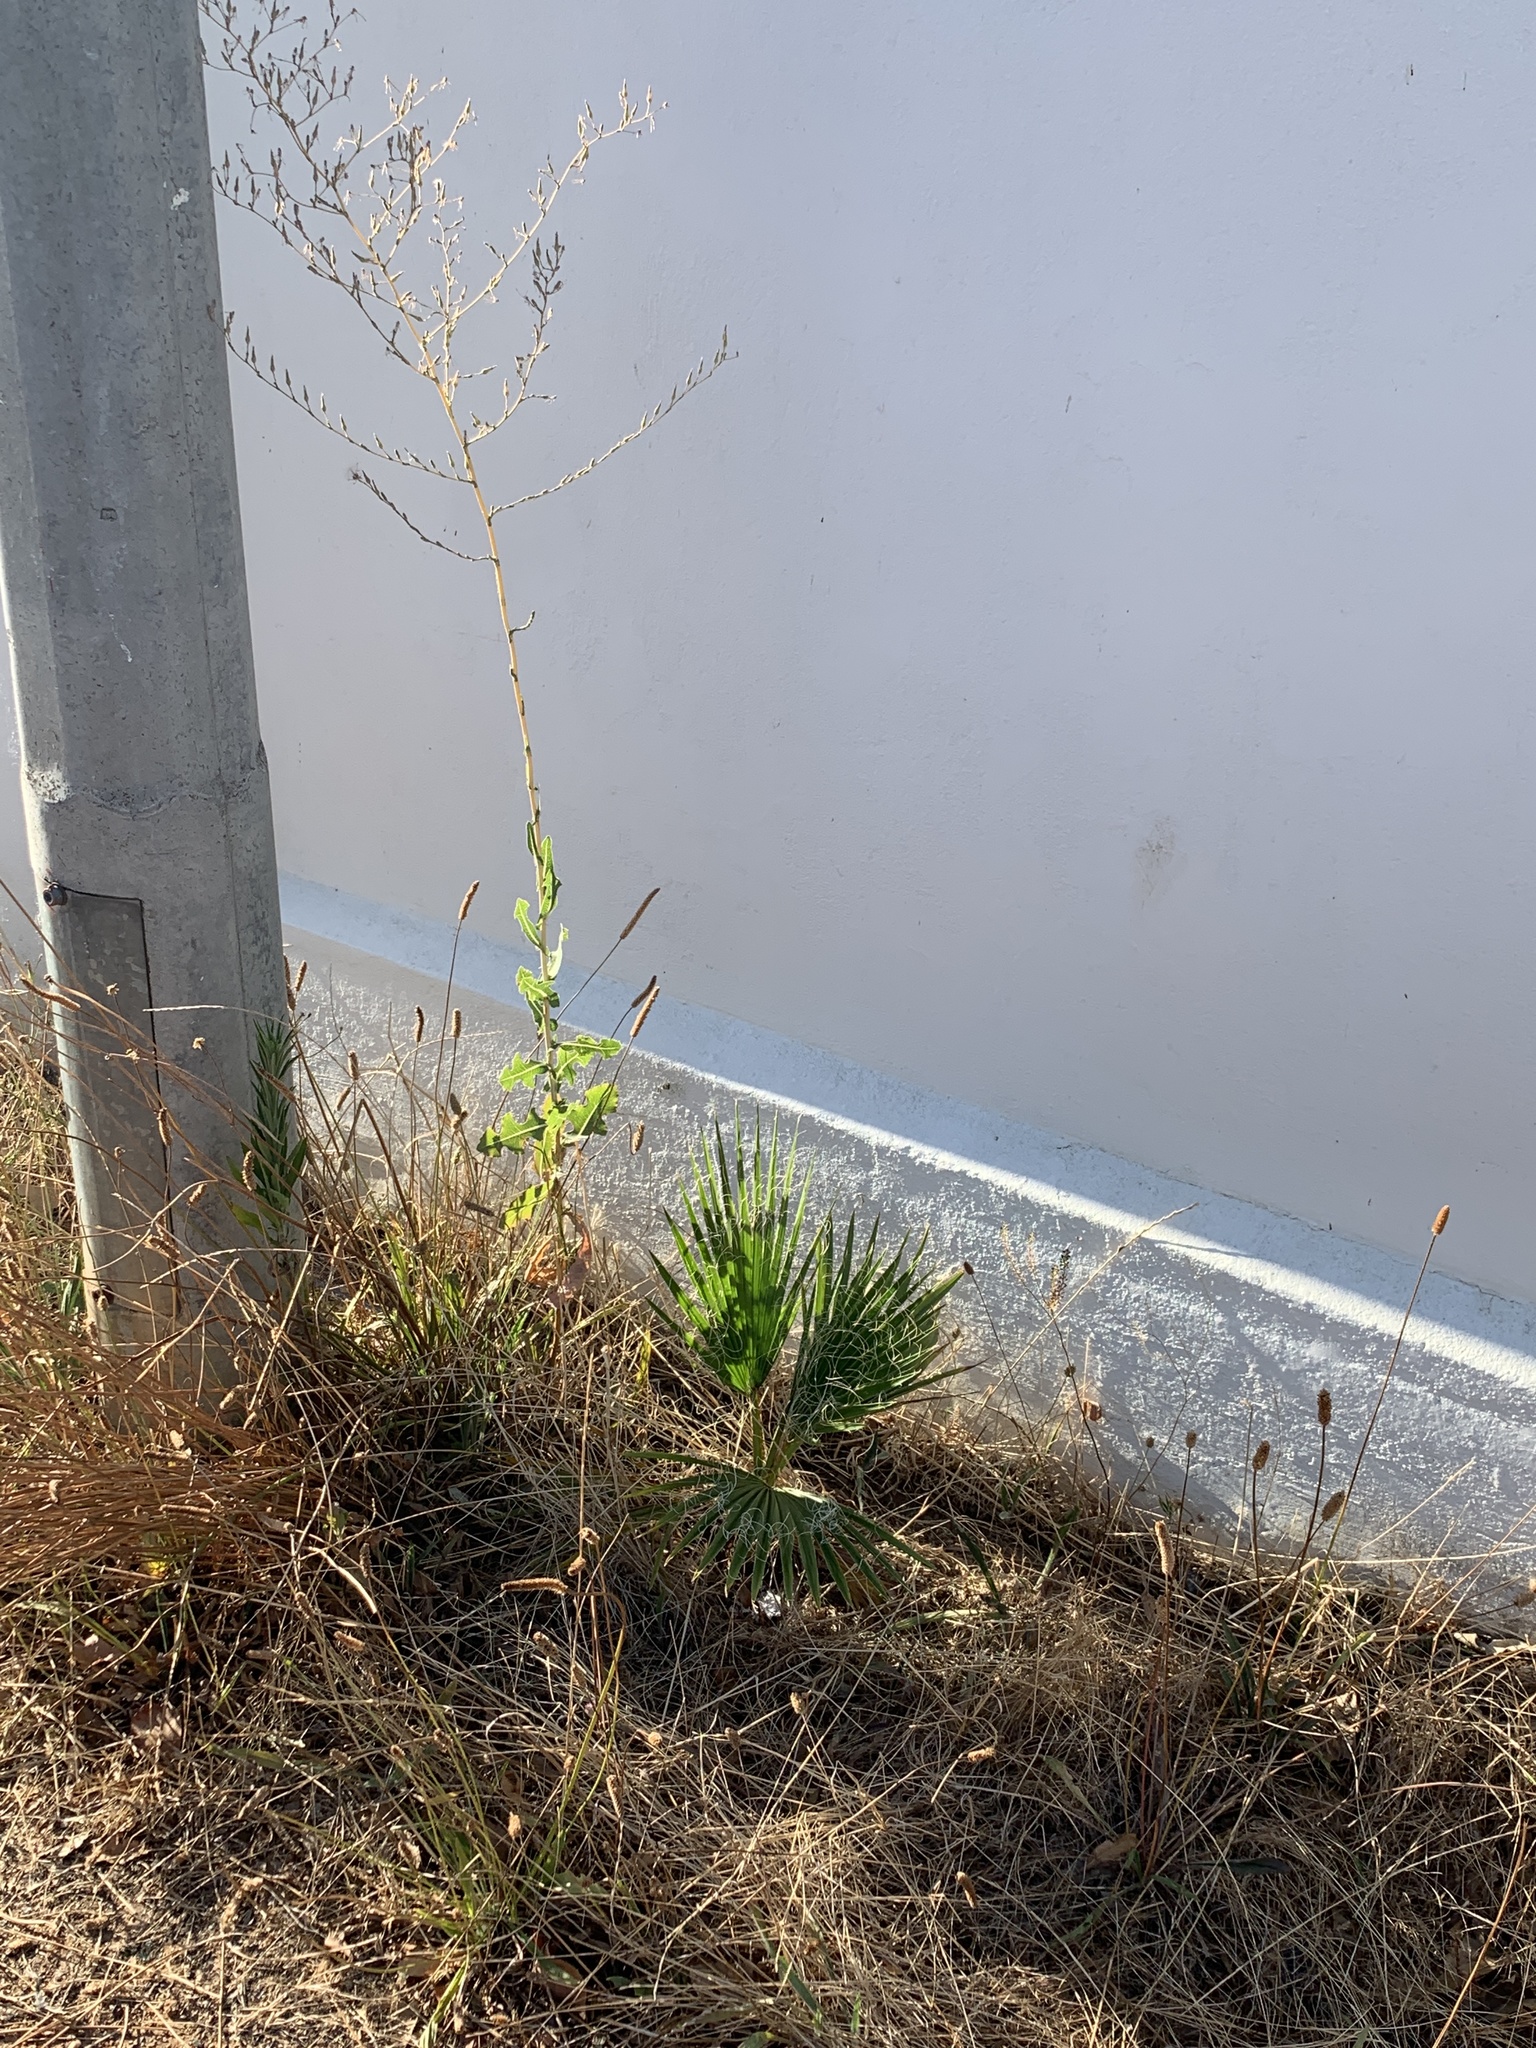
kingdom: Plantae
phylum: Tracheophyta
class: Liliopsida
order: Arecales
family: Arecaceae
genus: Washingtonia
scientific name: Washingtonia robusta
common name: Mexican fan palm
